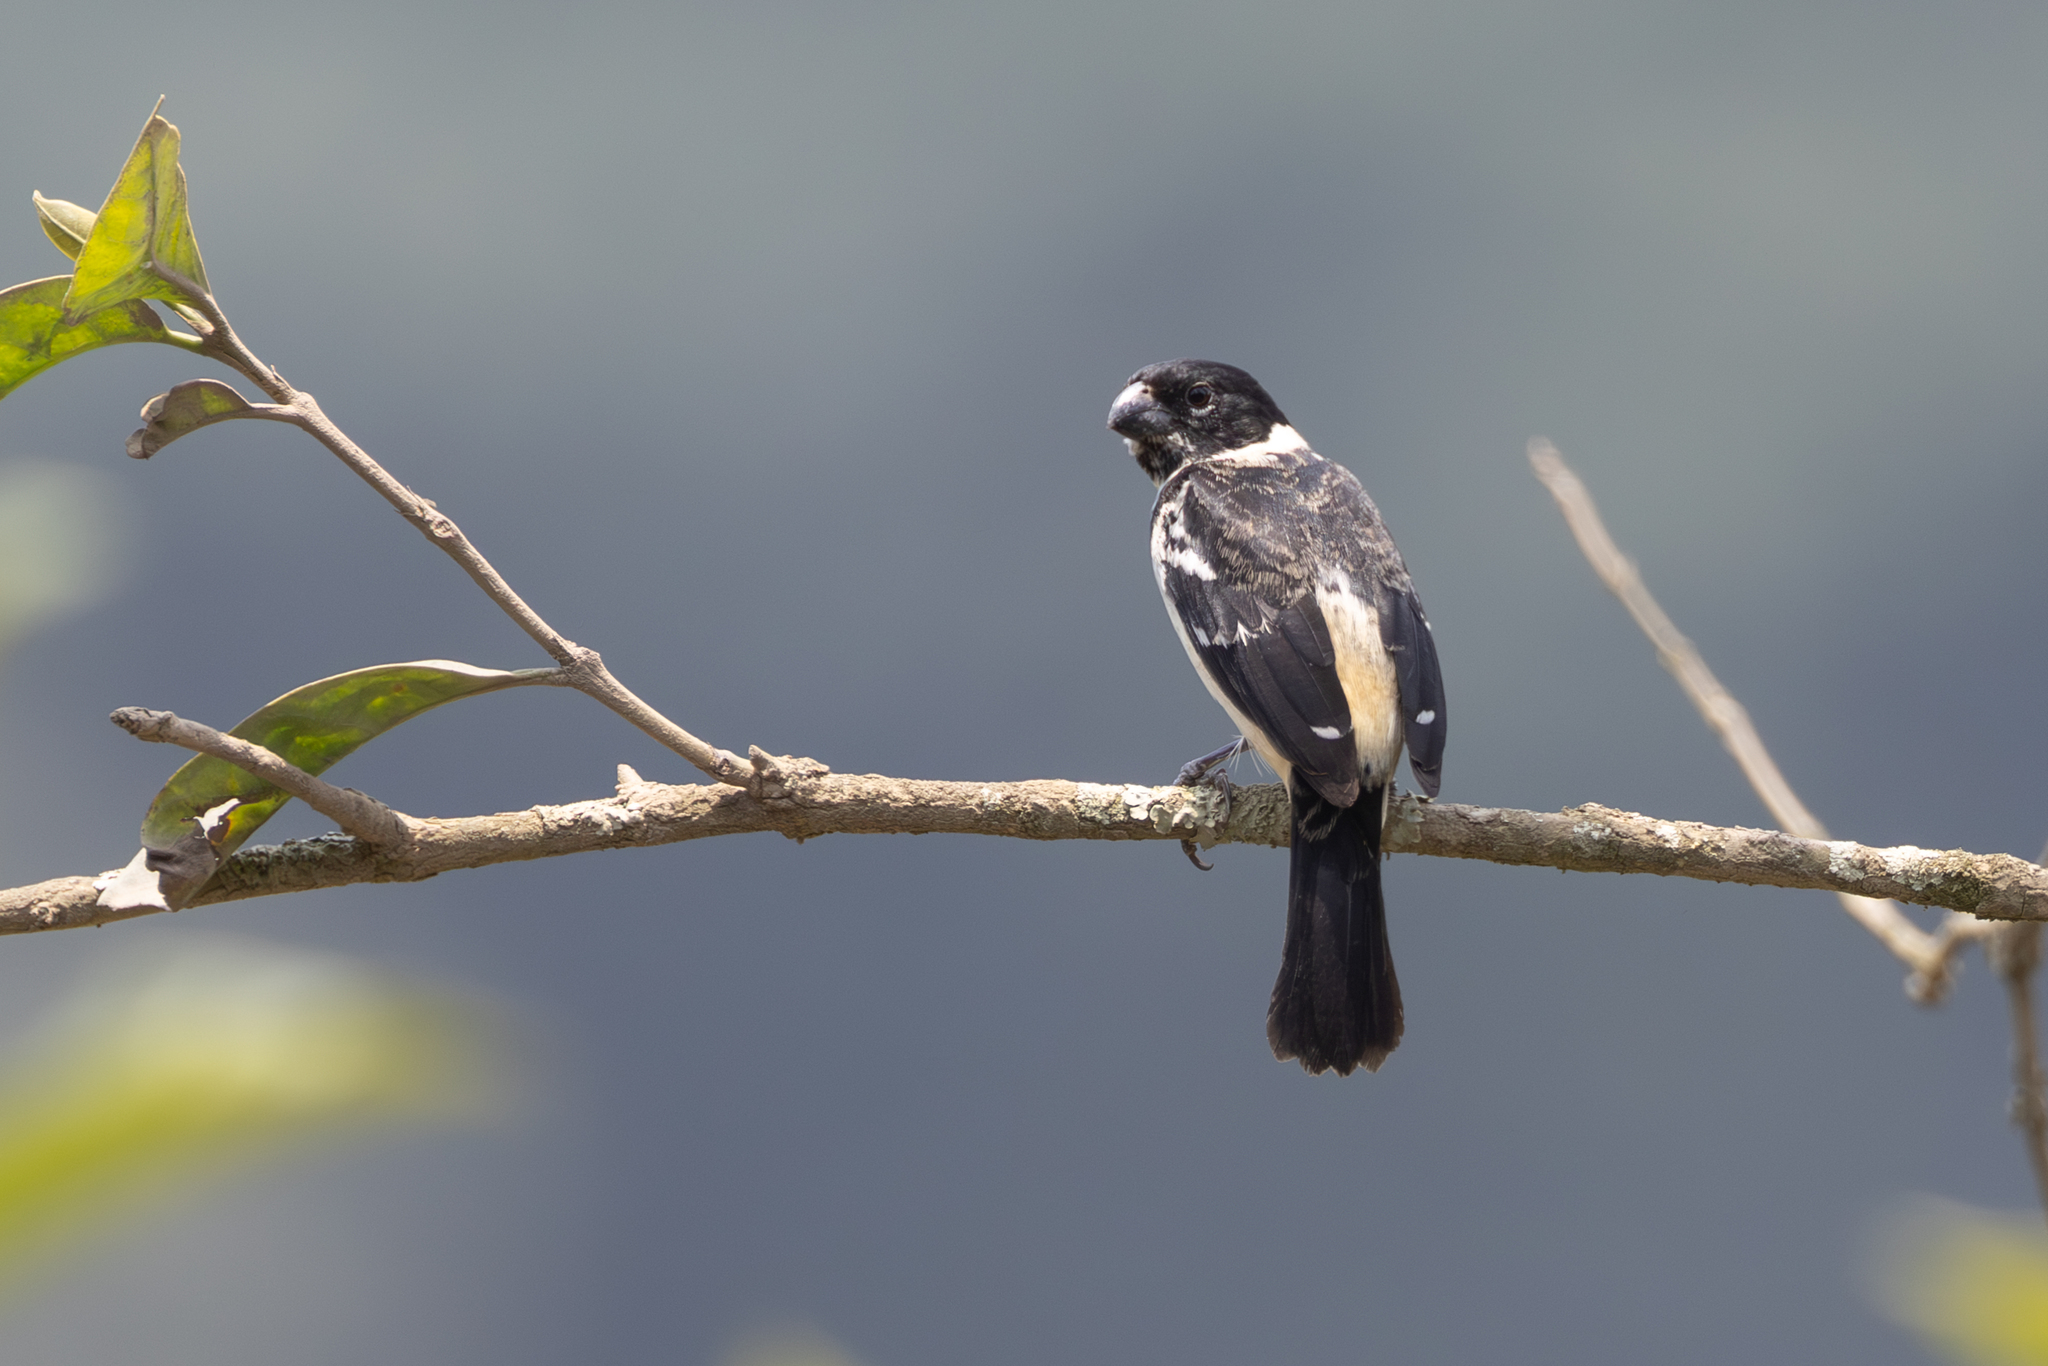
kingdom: Animalia
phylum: Chordata
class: Aves
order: Passeriformes
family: Thraupidae
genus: Sporophila
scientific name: Sporophila morelleti
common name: Morelet's seedeater
